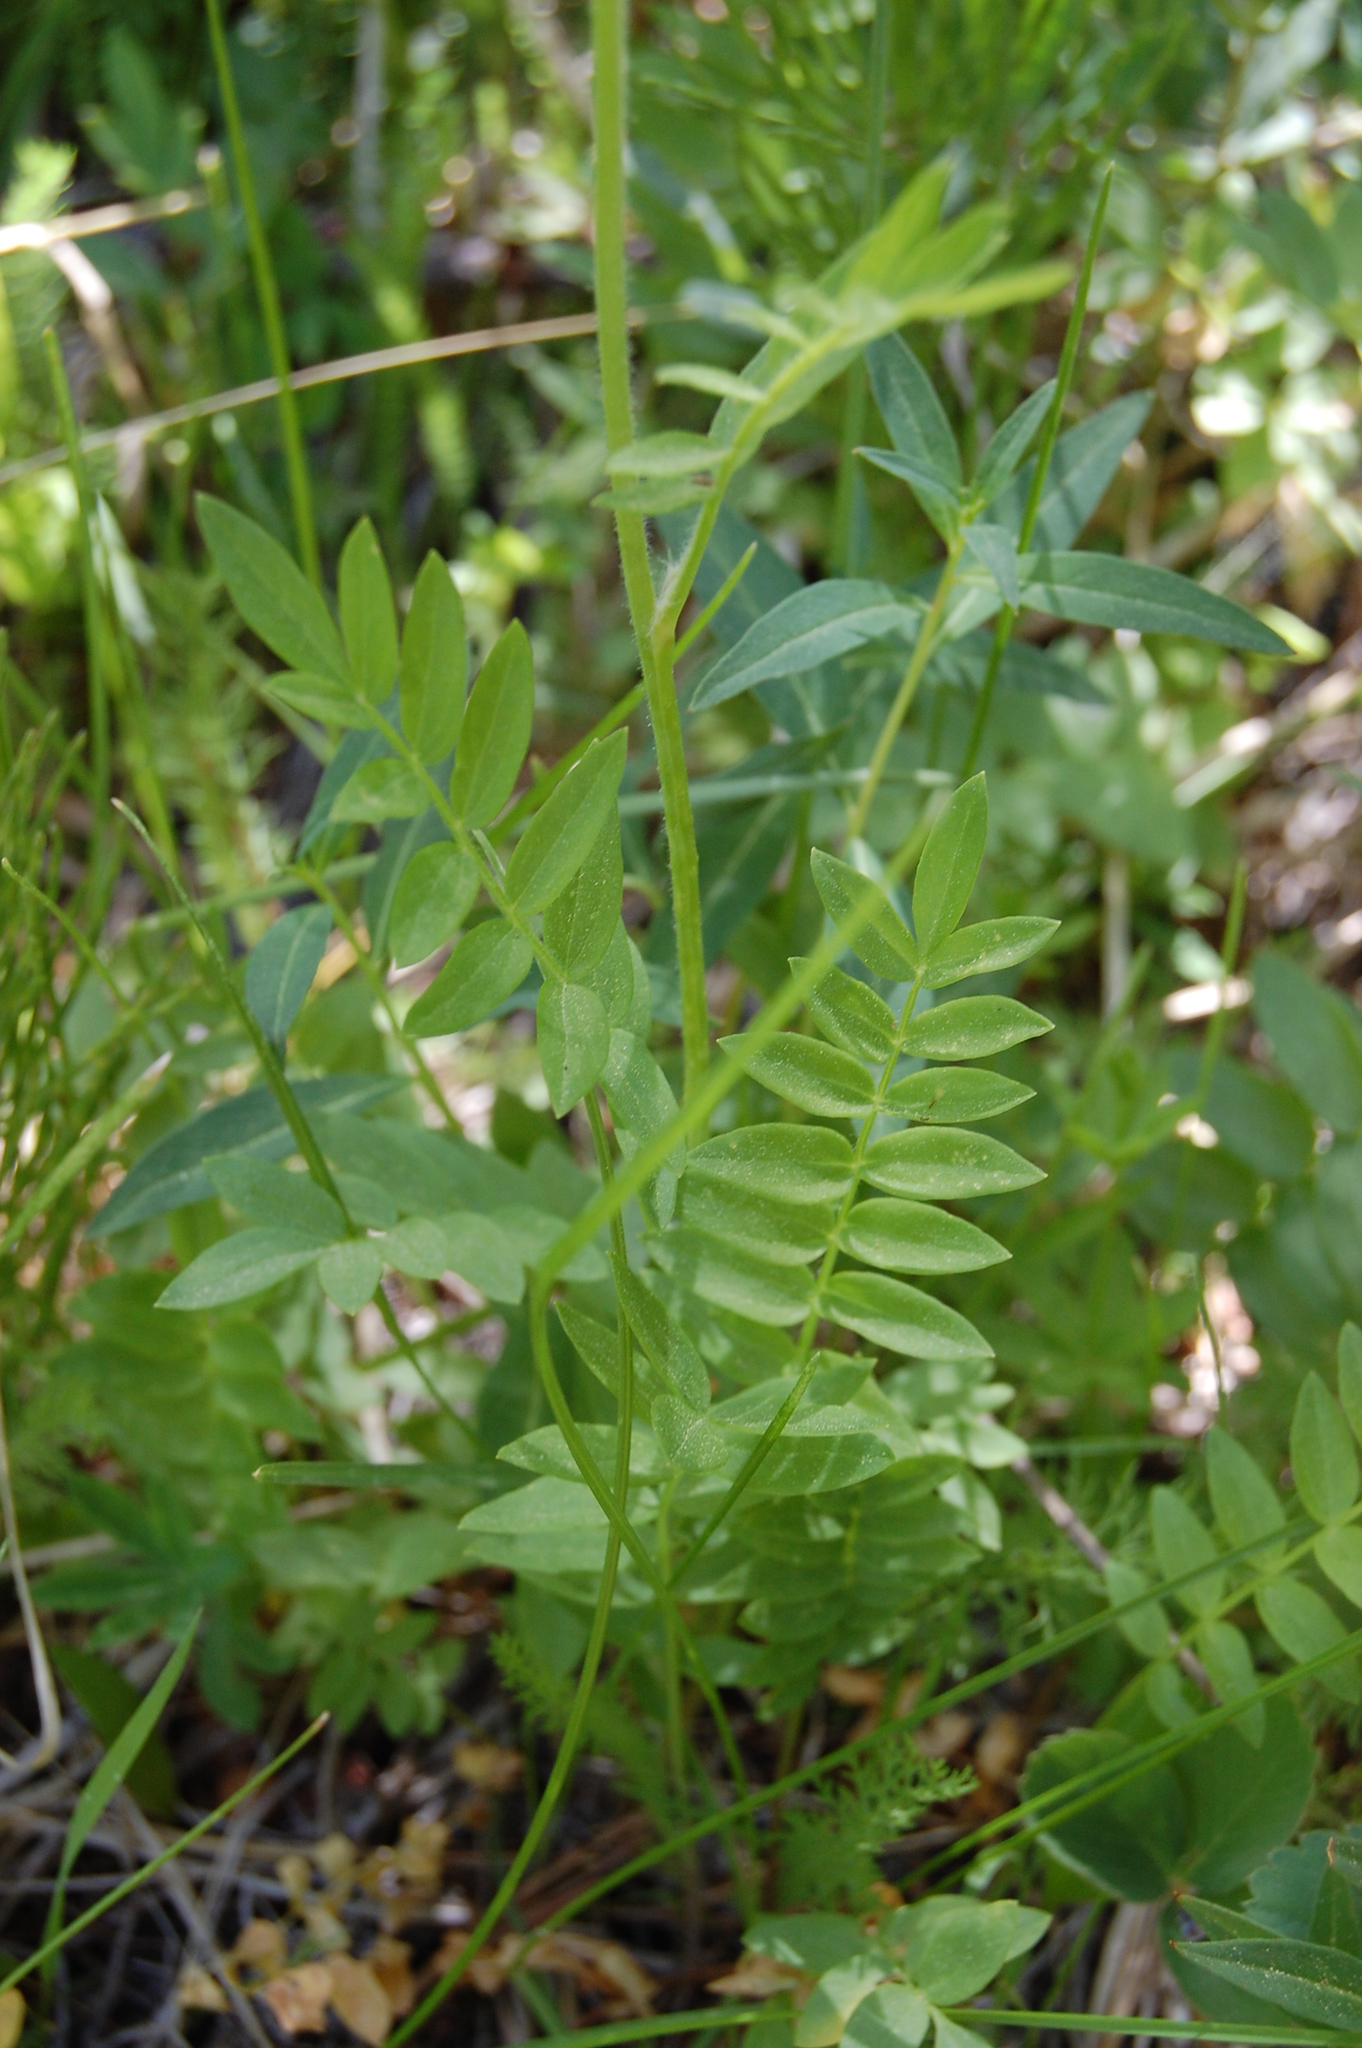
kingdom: Plantae
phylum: Tracheophyta
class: Magnoliopsida
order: Ericales
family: Polemoniaceae
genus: Polemonium
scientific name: Polemonium occidentale
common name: Western jacob's-ladder
